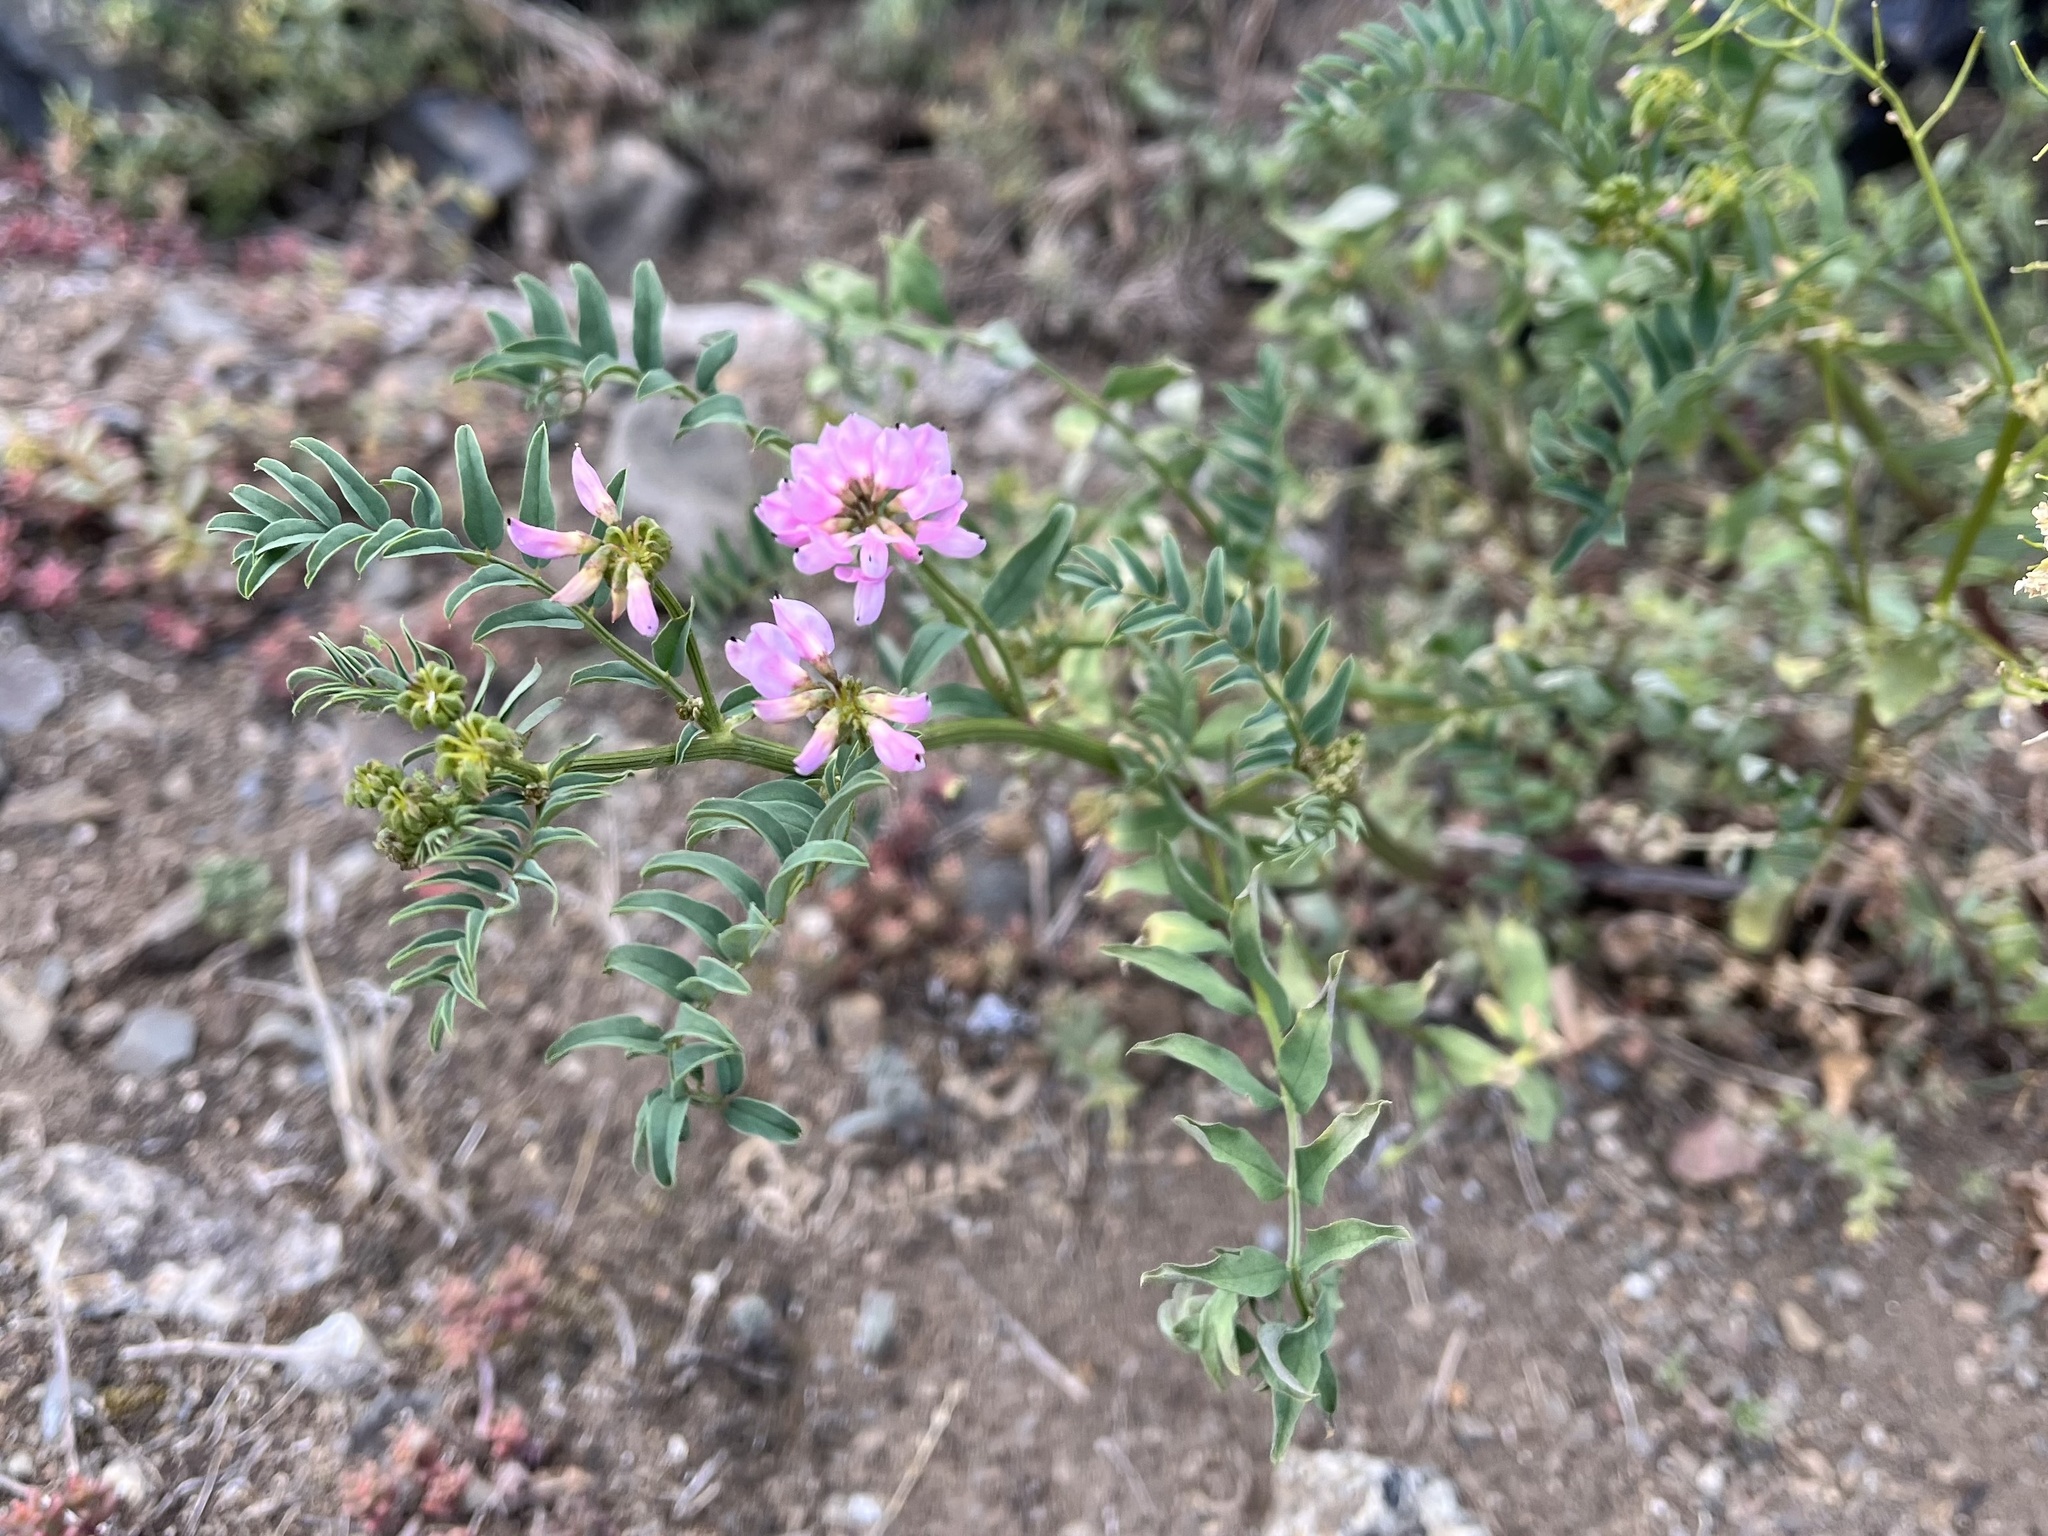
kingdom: Plantae
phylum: Tracheophyta
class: Magnoliopsida
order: Fabales
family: Fabaceae
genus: Coronilla
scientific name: Coronilla varia
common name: Crownvetch
